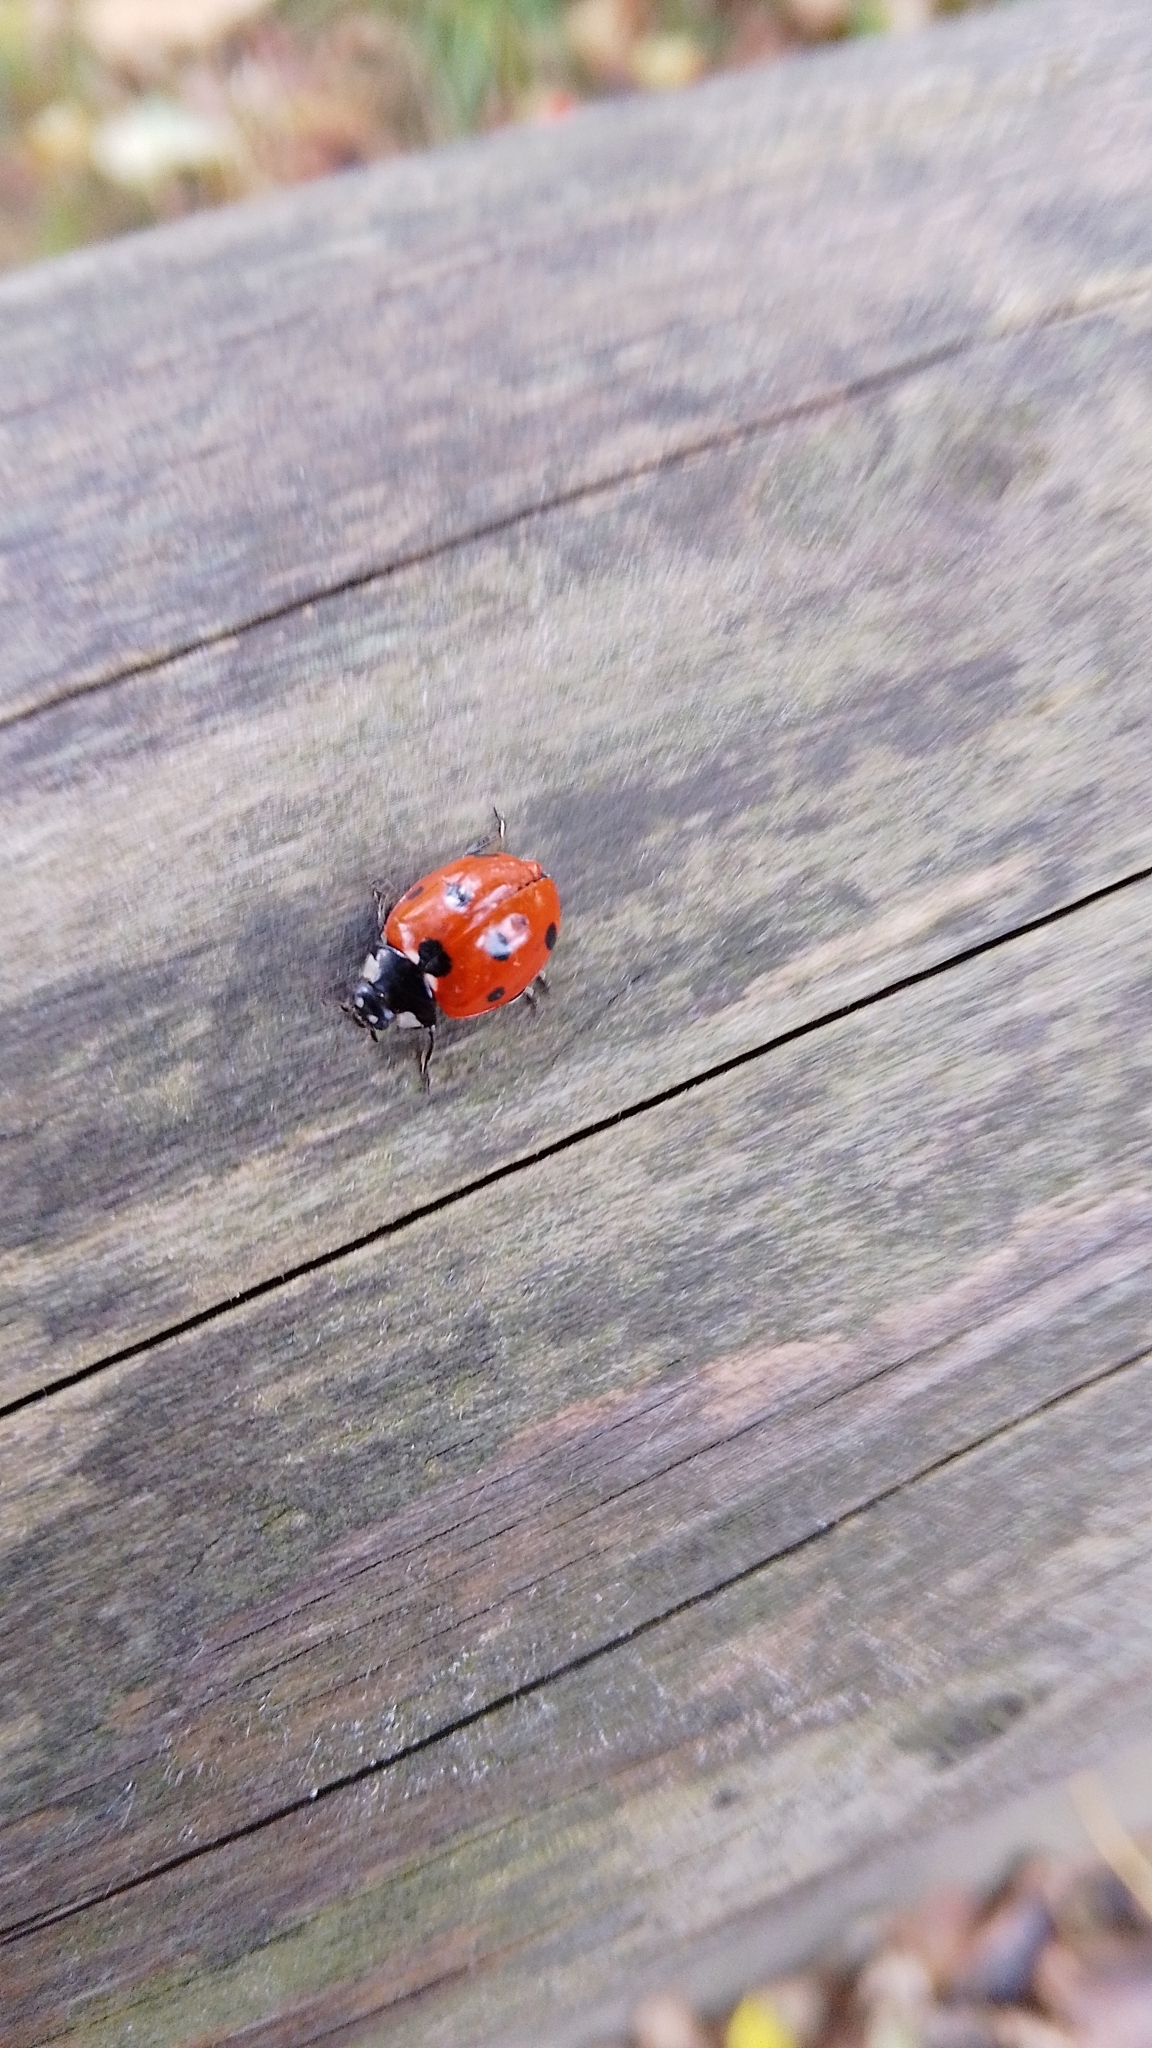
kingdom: Animalia
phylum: Arthropoda
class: Insecta
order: Coleoptera
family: Coccinellidae
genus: Coccinella
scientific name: Coccinella septempunctata
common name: Sevenspotted lady beetle
